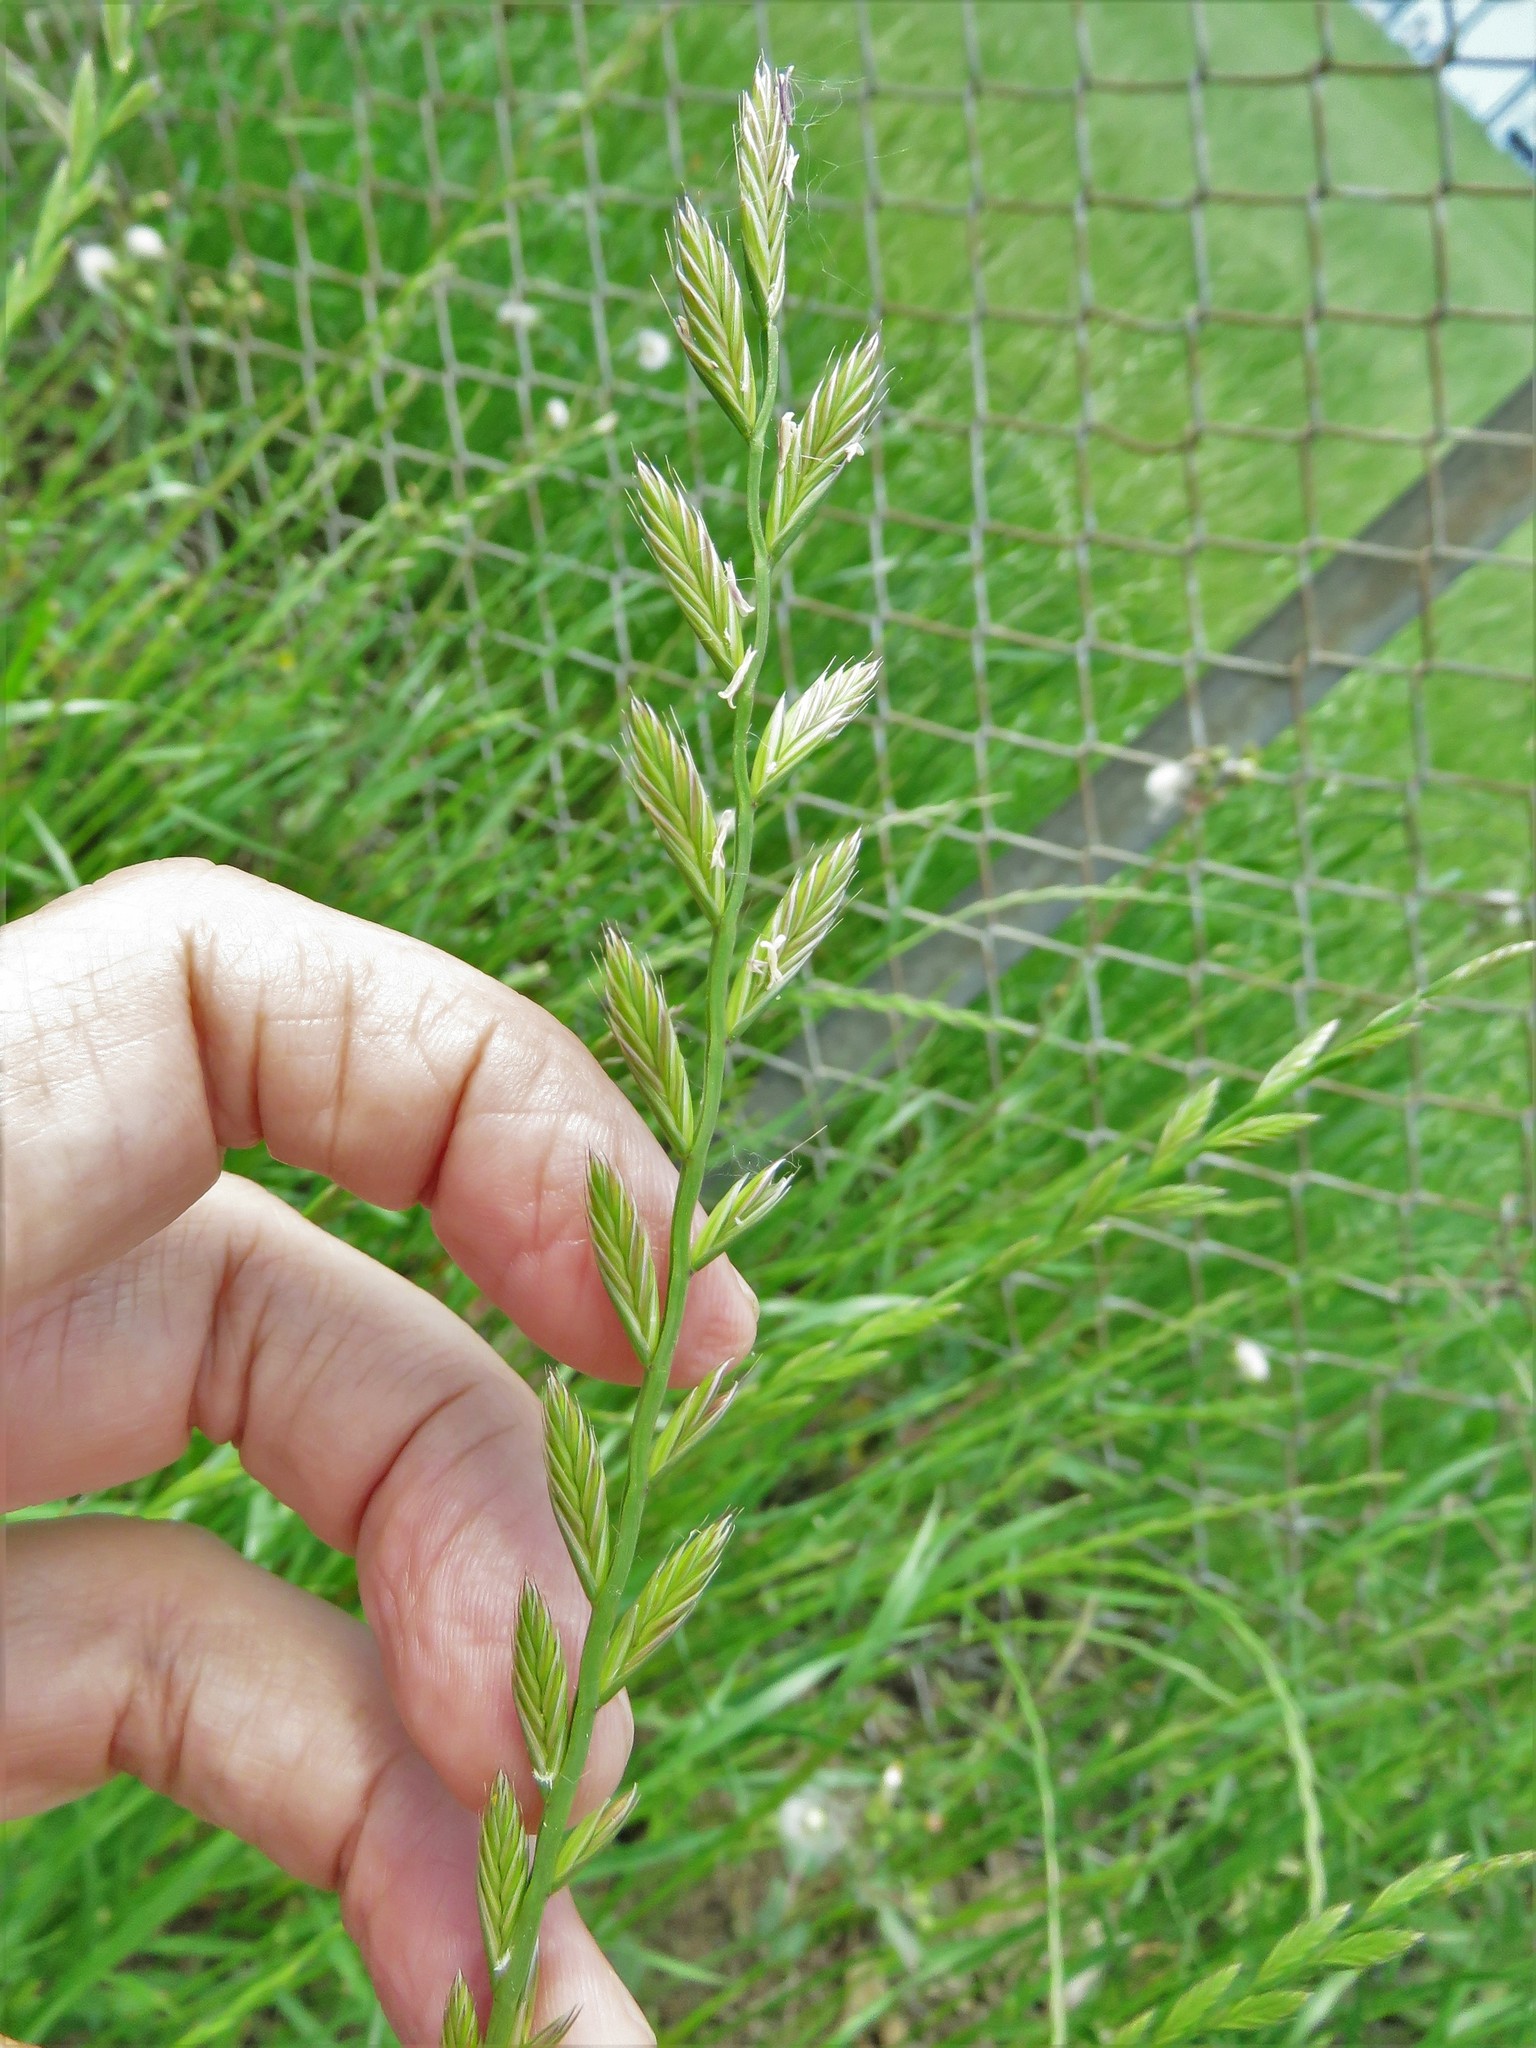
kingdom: Plantae
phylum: Tracheophyta
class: Liliopsida
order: Poales
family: Poaceae
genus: Lolium
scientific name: Lolium perenne
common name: Perennial ryegrass
